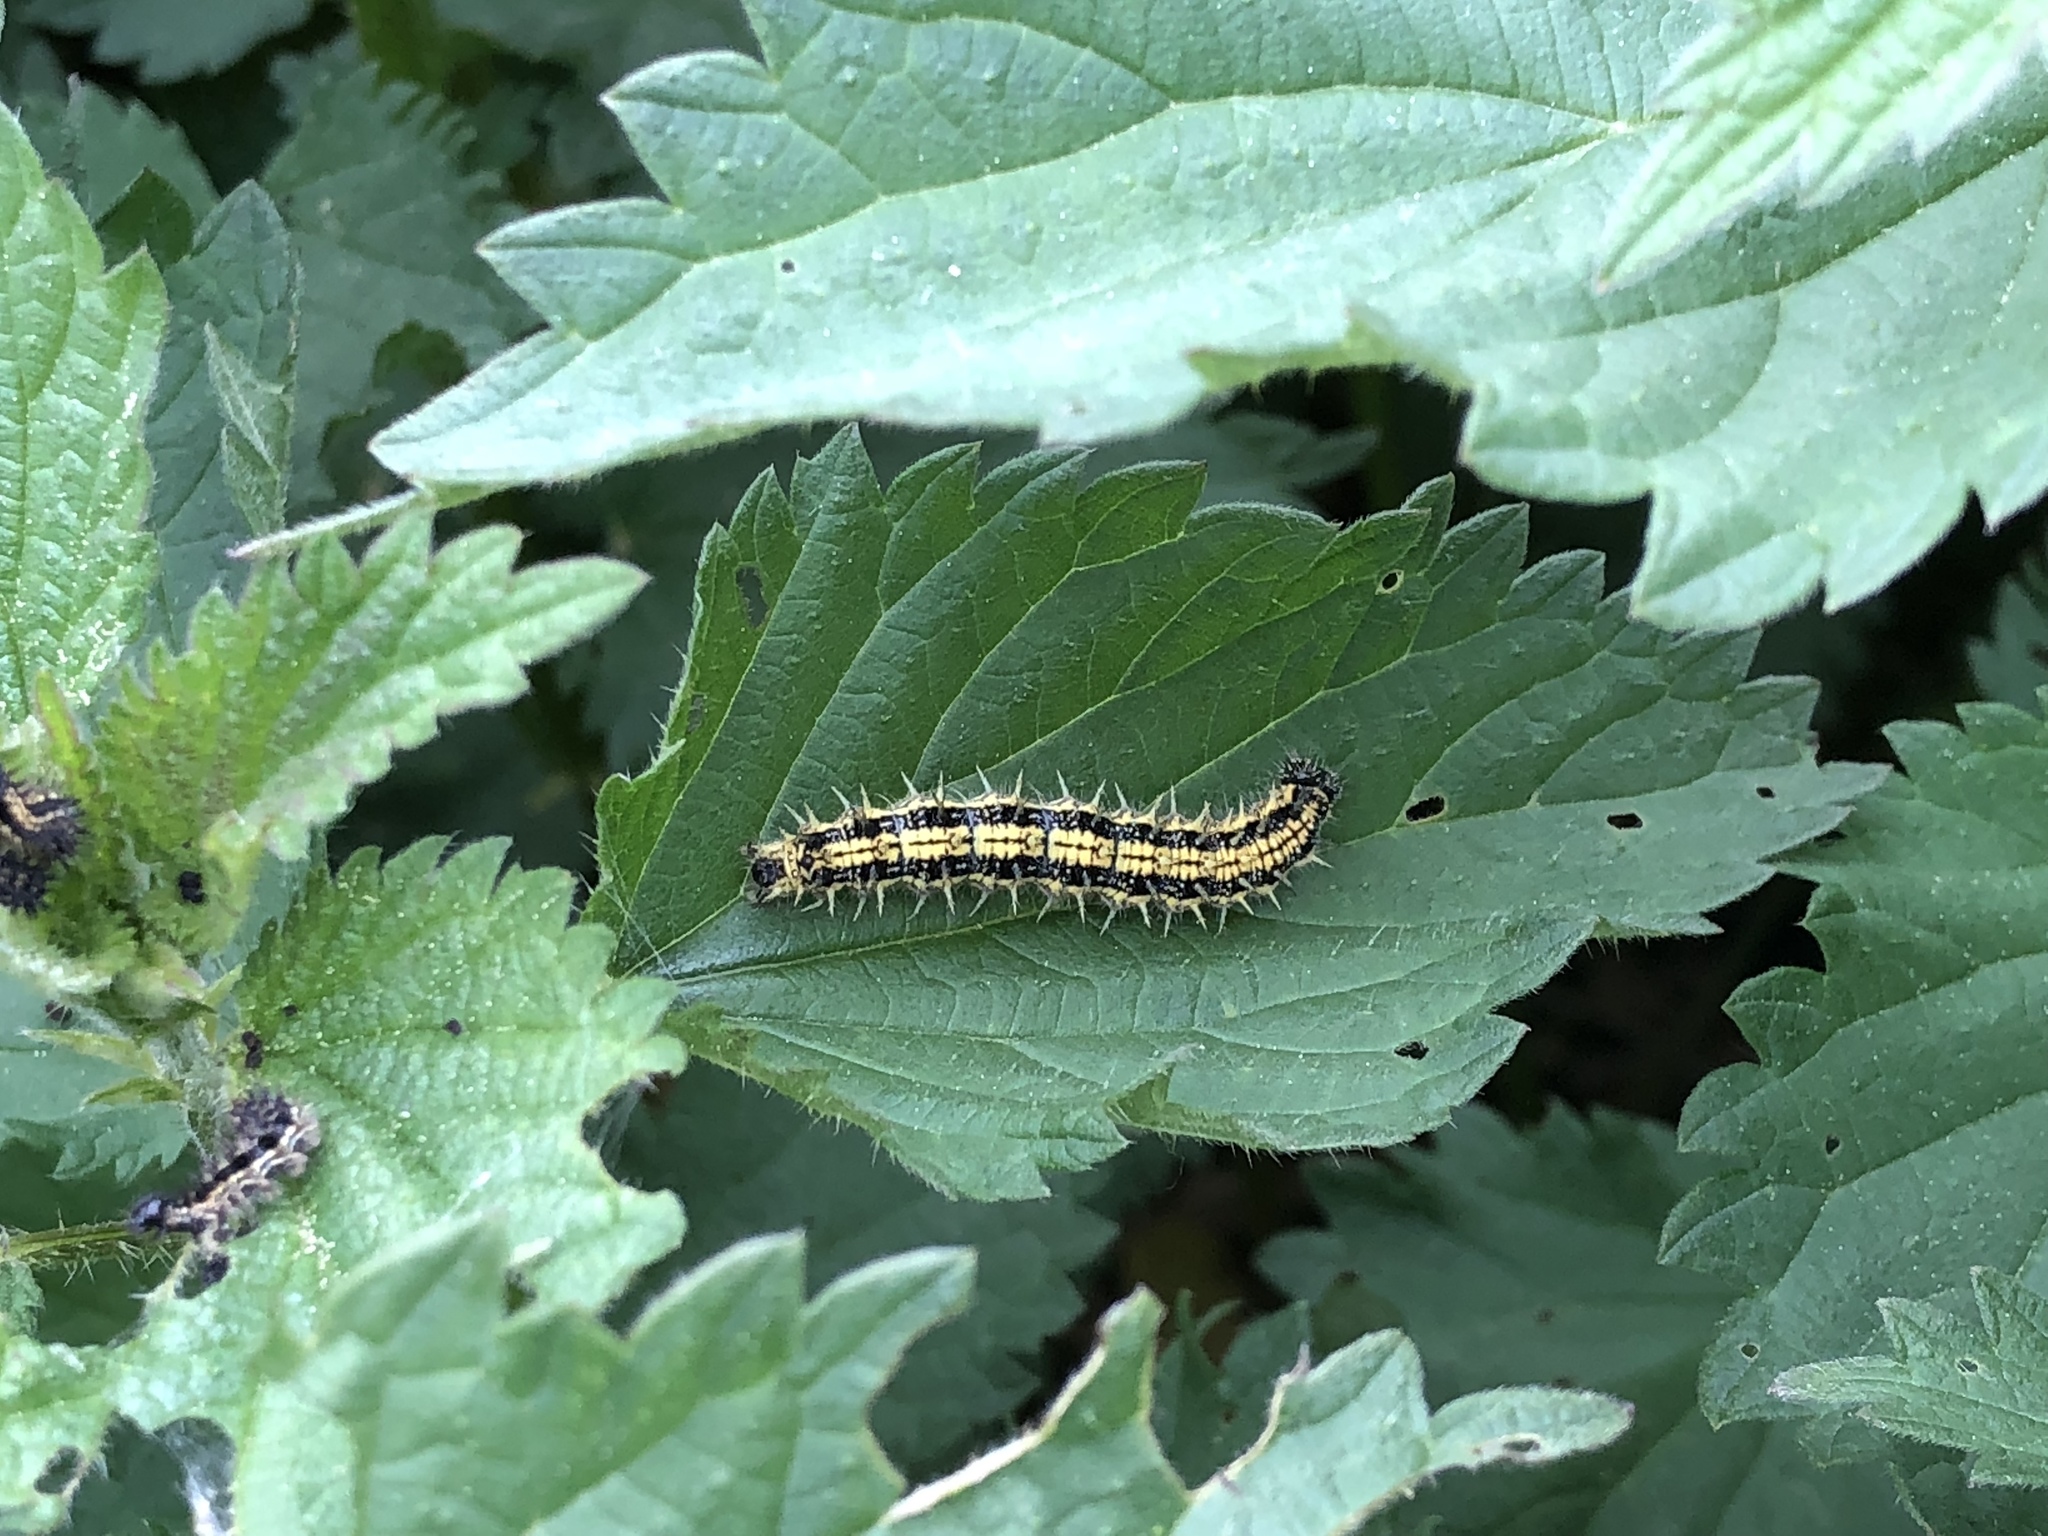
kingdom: Animalia
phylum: Arthropoda
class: Insecta
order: Lepidoptera
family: Nymphalidae
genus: Aglais
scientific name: Aglais urticae
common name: Small tortoiseshell
